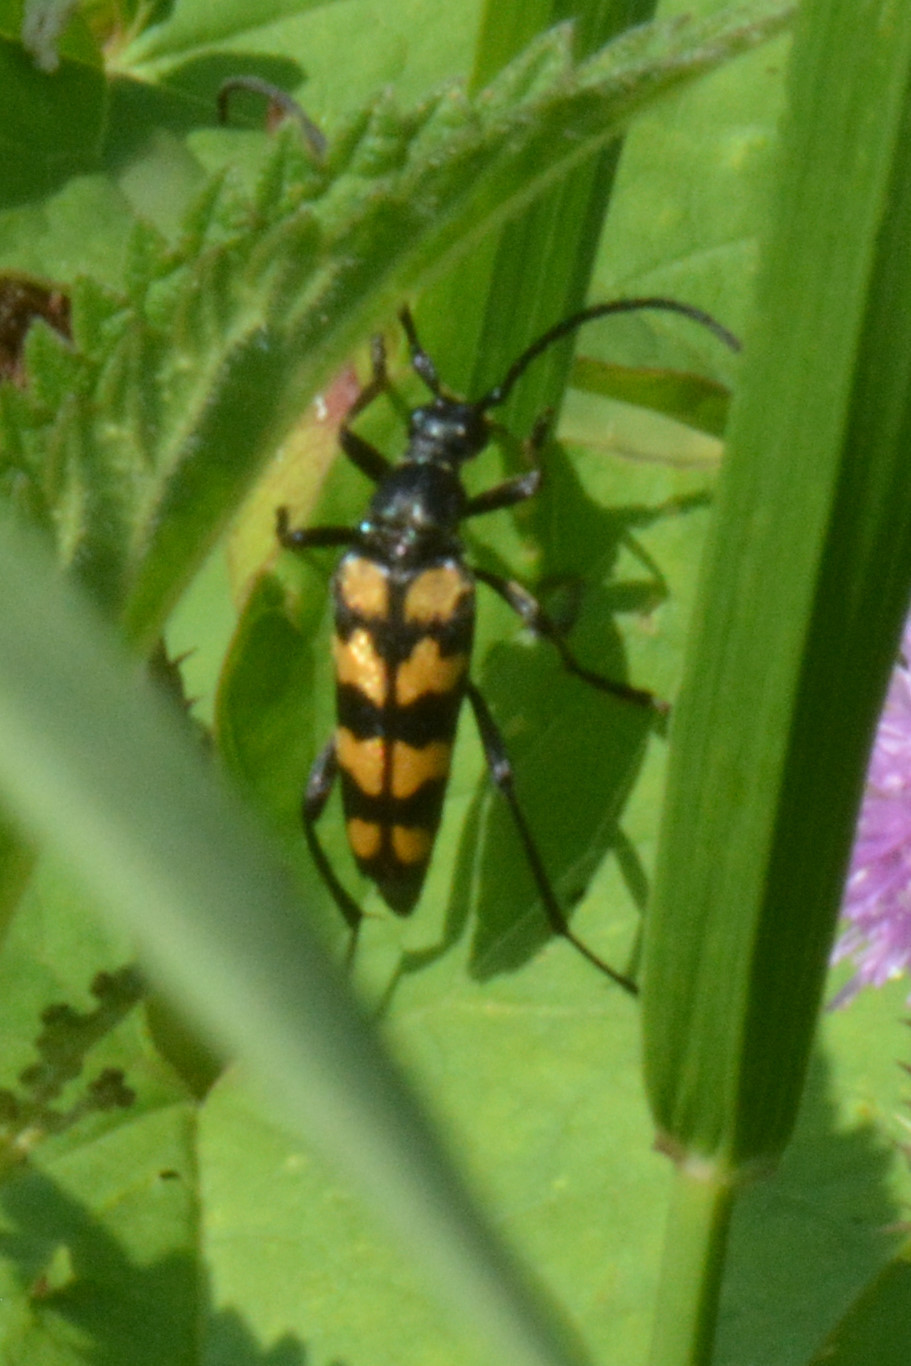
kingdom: Animalia
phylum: Arthropoda
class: Insecta
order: Coleoptera
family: Cerambycidae
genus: Leptura
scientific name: Leptura quadrifasciata
